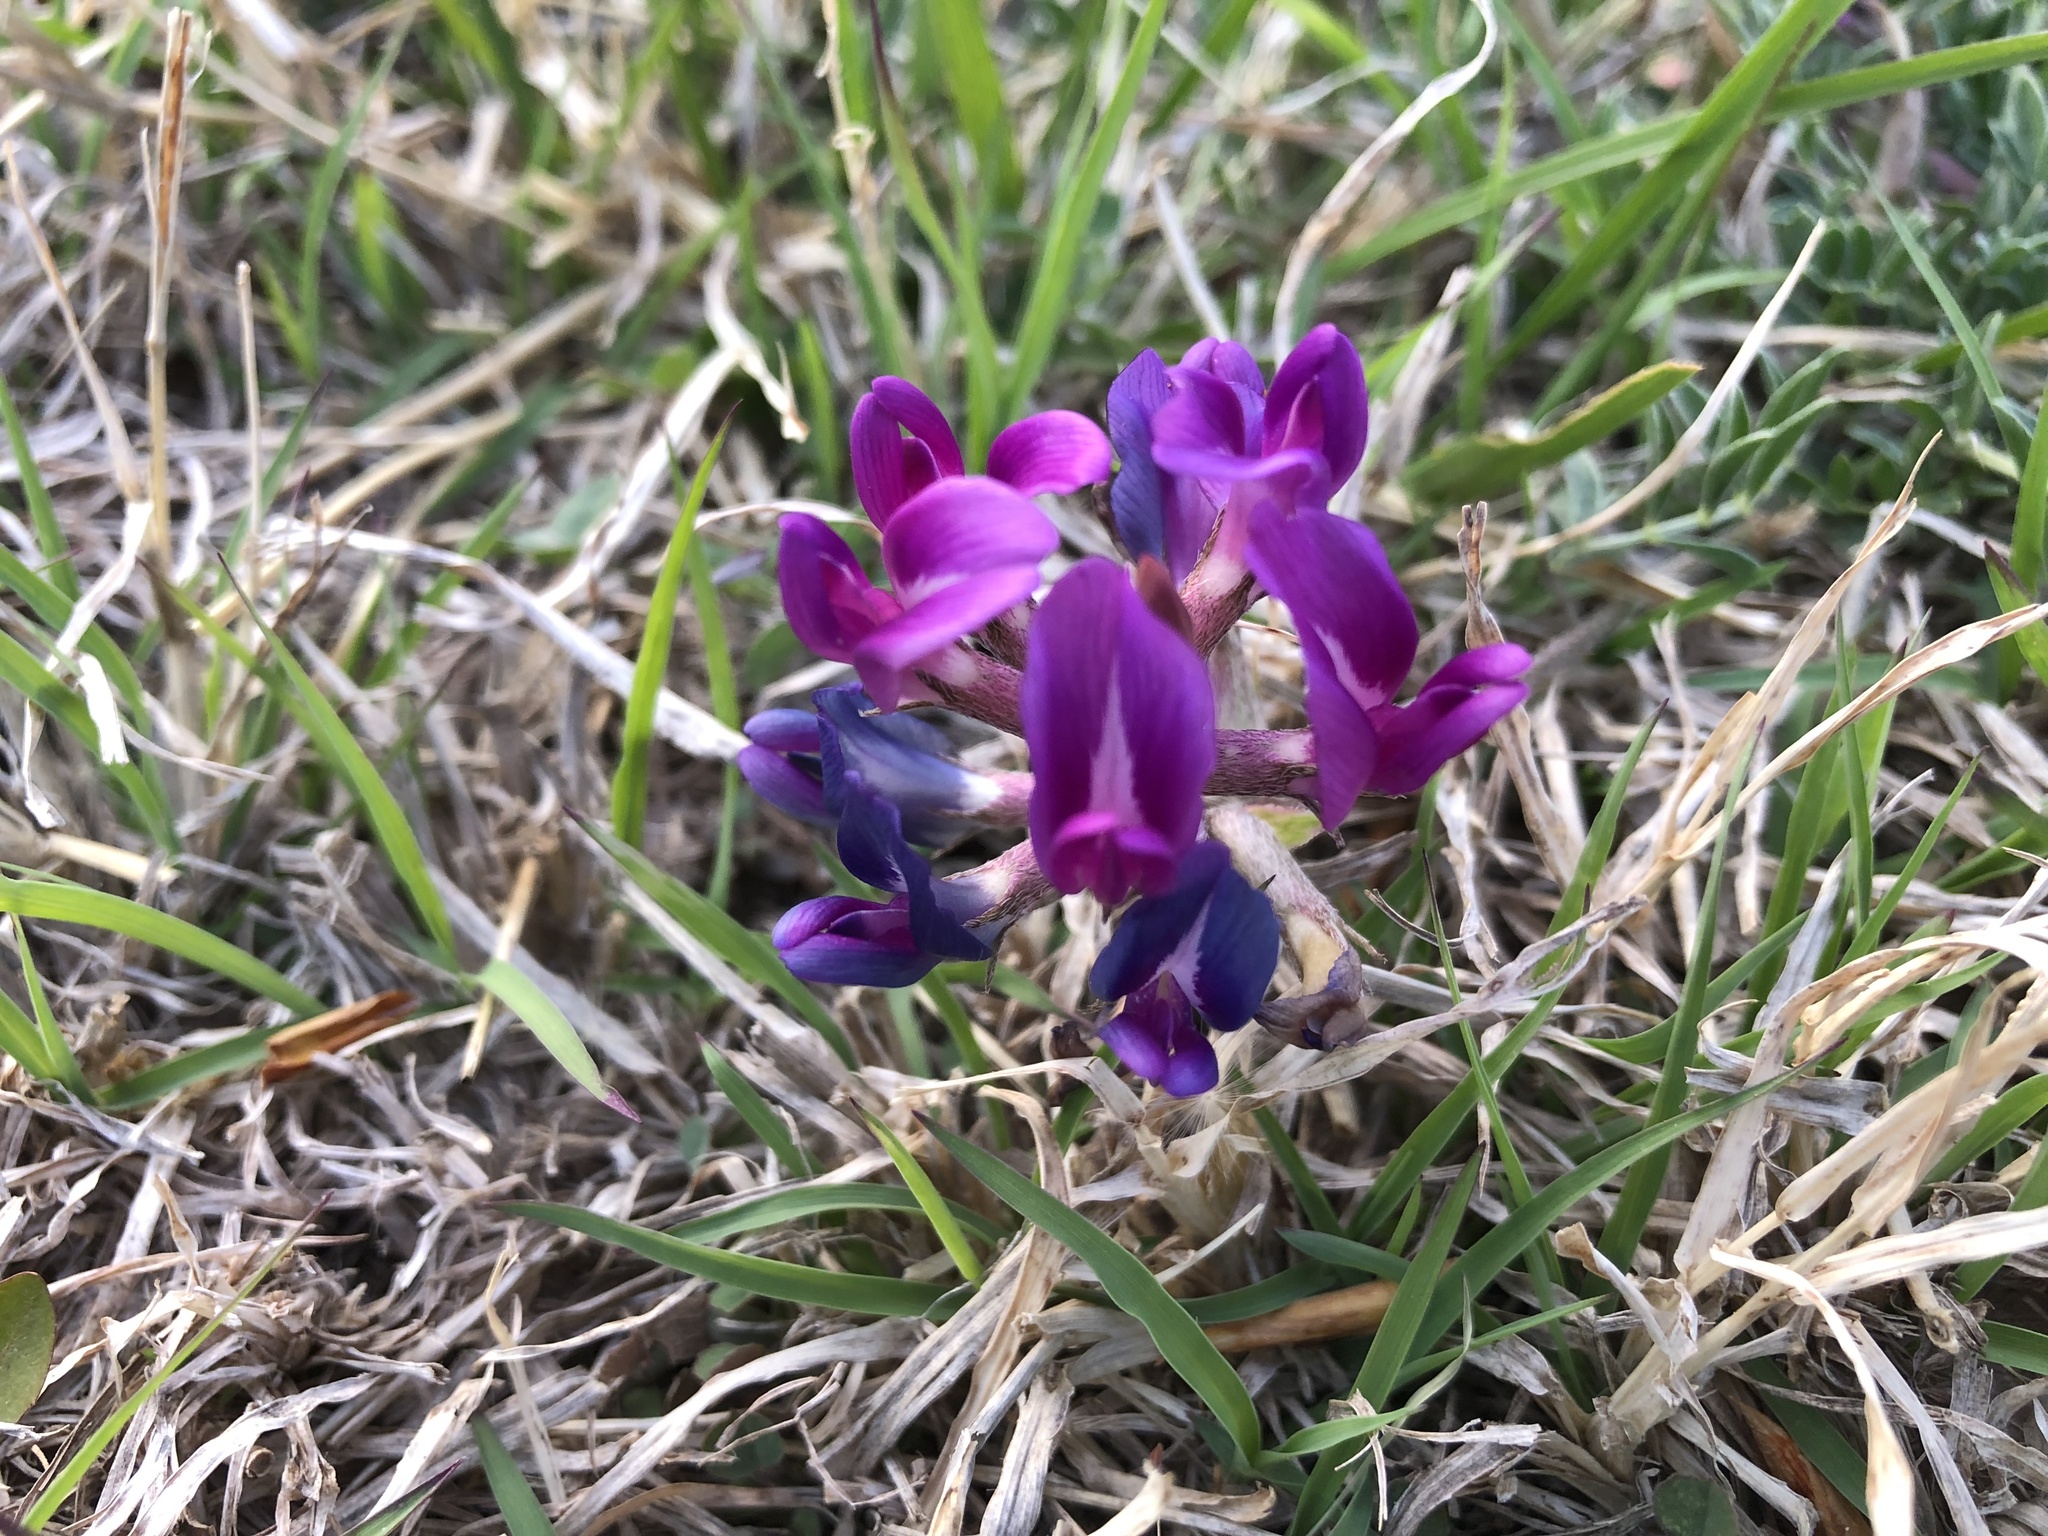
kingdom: Plantae
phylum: Tracheophyta
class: Magnoliopsida
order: Fabales
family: Fabaceae
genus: Astragalus
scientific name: Astragalus missouriensis
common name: Missouri milk-vetch
